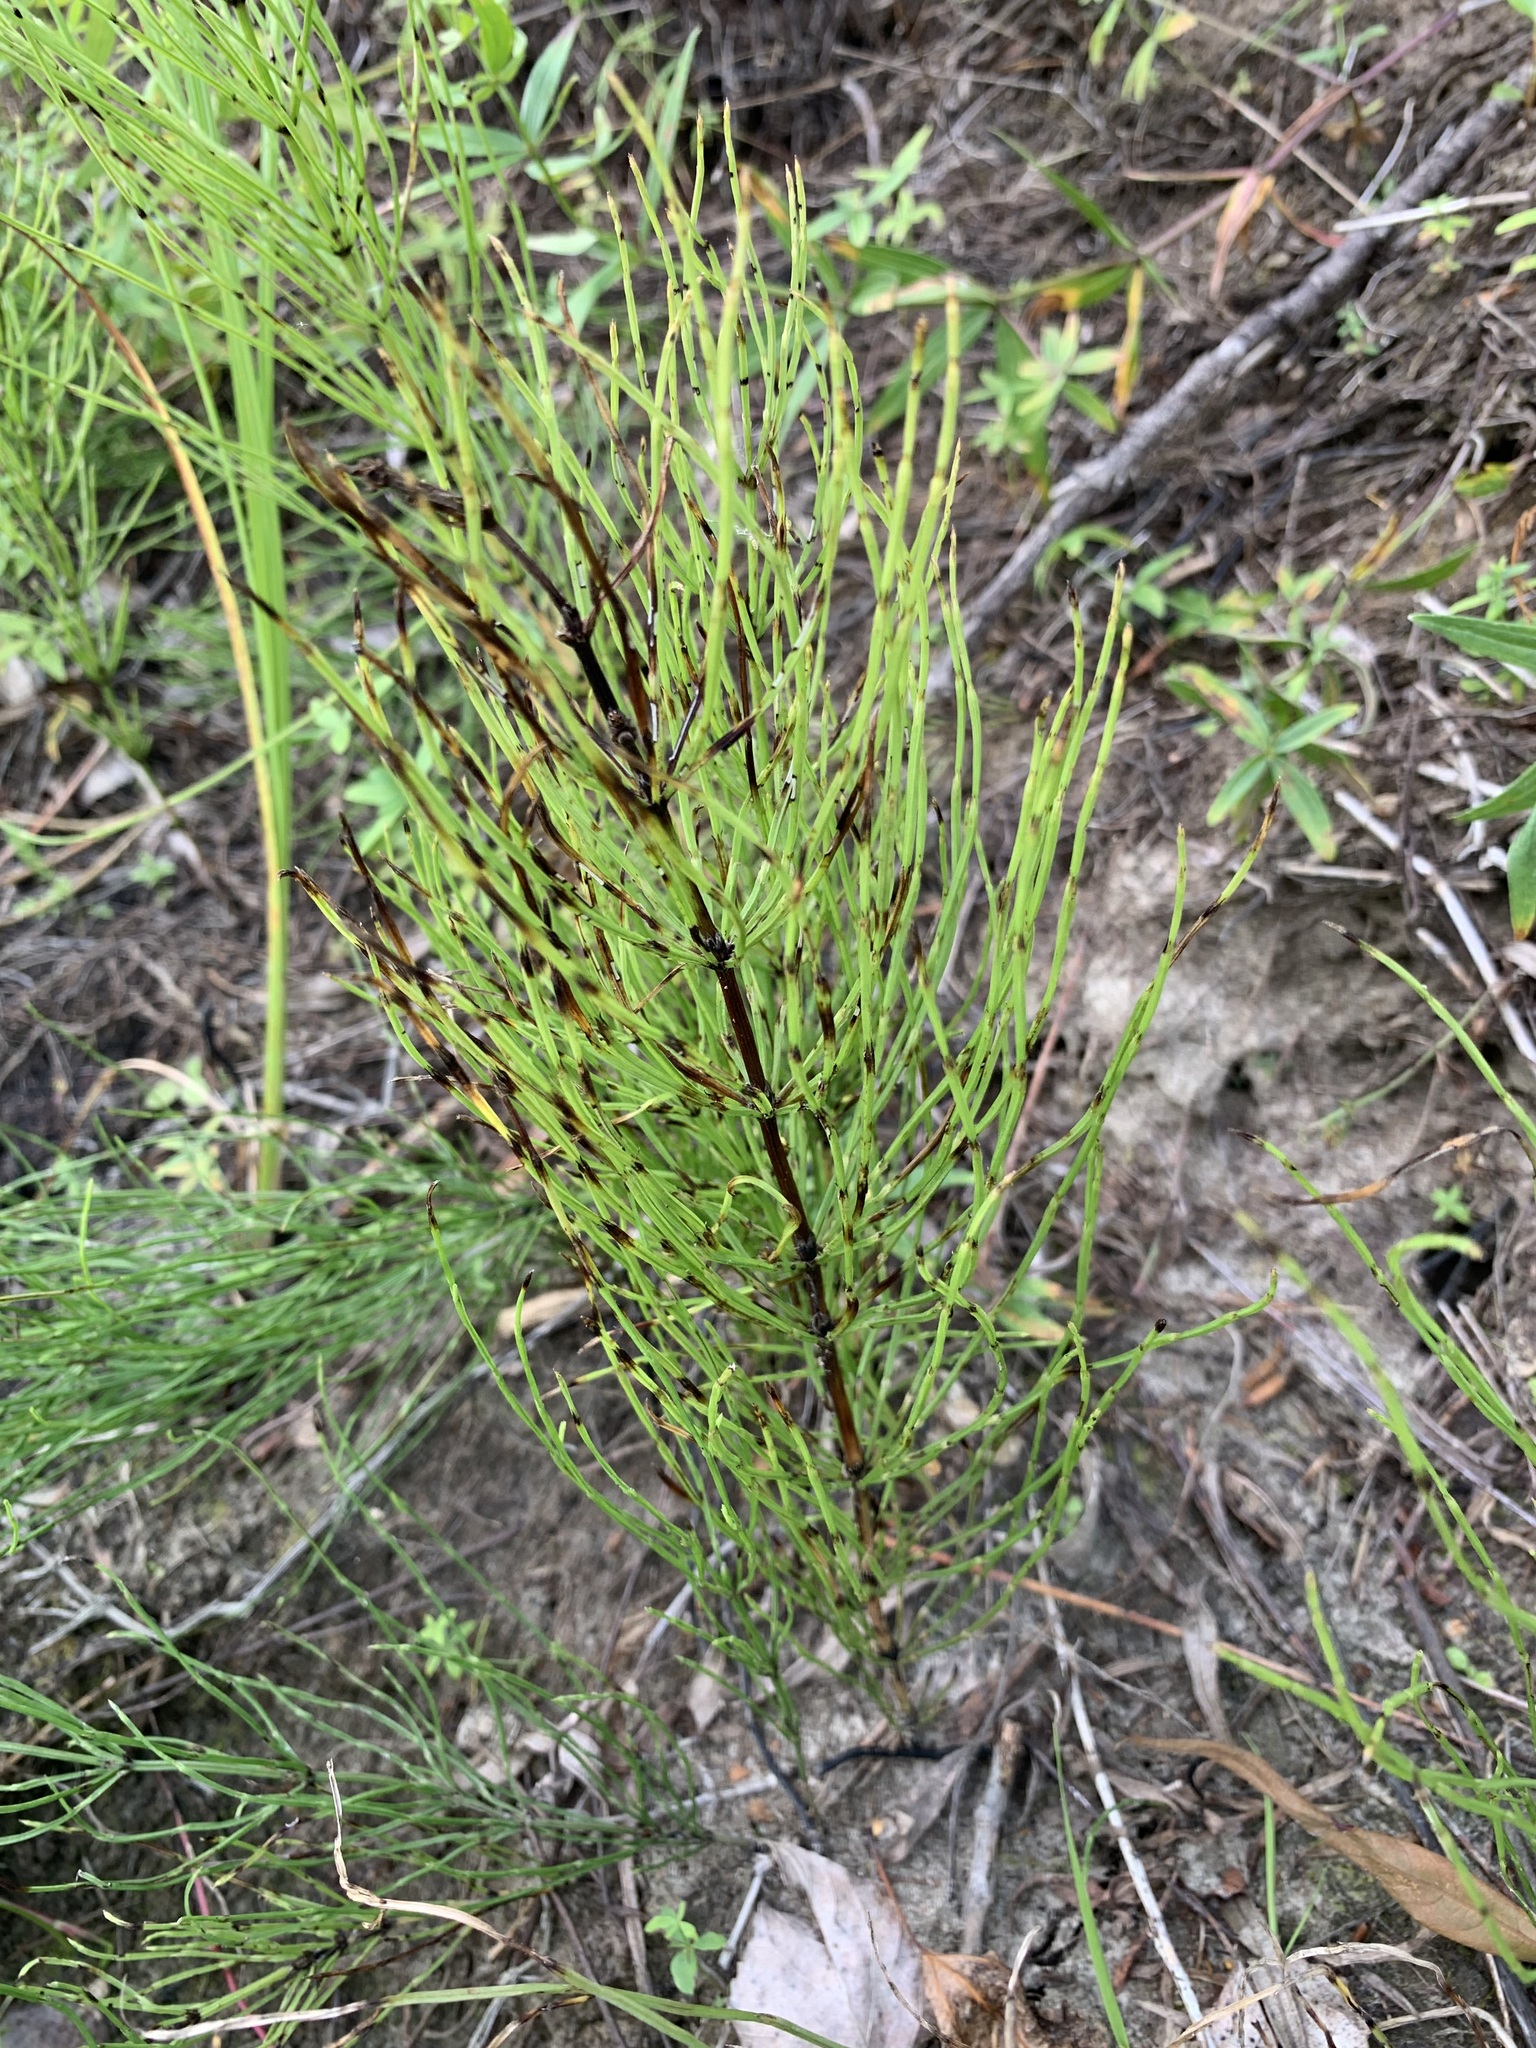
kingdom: Plantae
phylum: Tracheophyta
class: Polypodiopsida
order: Equisetales
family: Equisetaceae
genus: Equisetum
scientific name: Equisetum arvense
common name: Field horsetail
